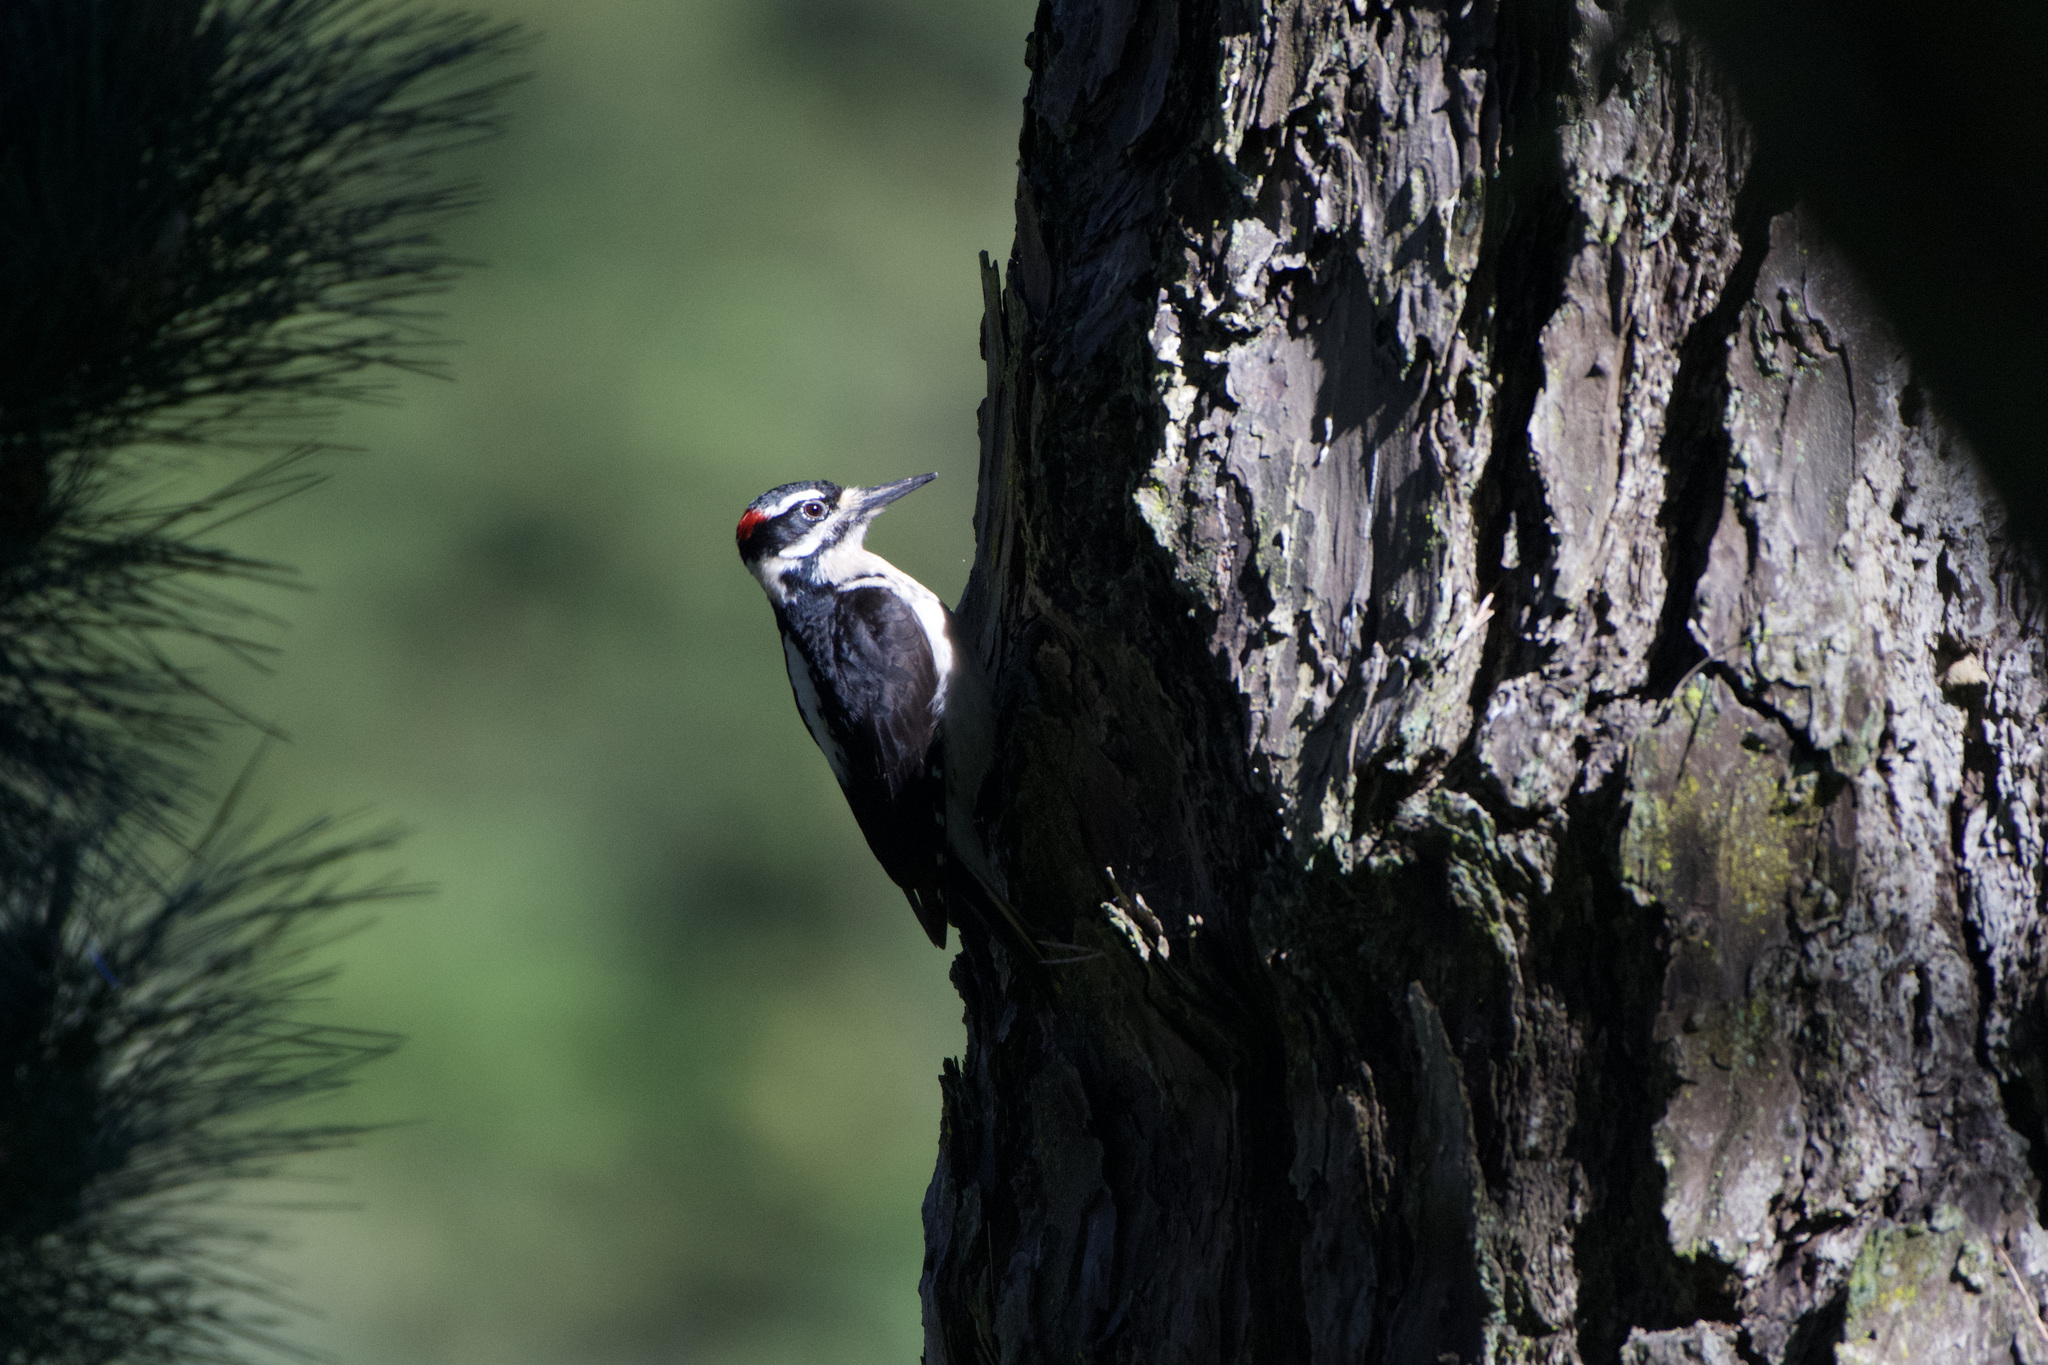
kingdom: Animalia
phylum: Chordata
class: Aves
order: Piciformes
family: Picidae
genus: Leuconotopicus
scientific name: Leuconotopicus villosus
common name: Hairy woodpecker
